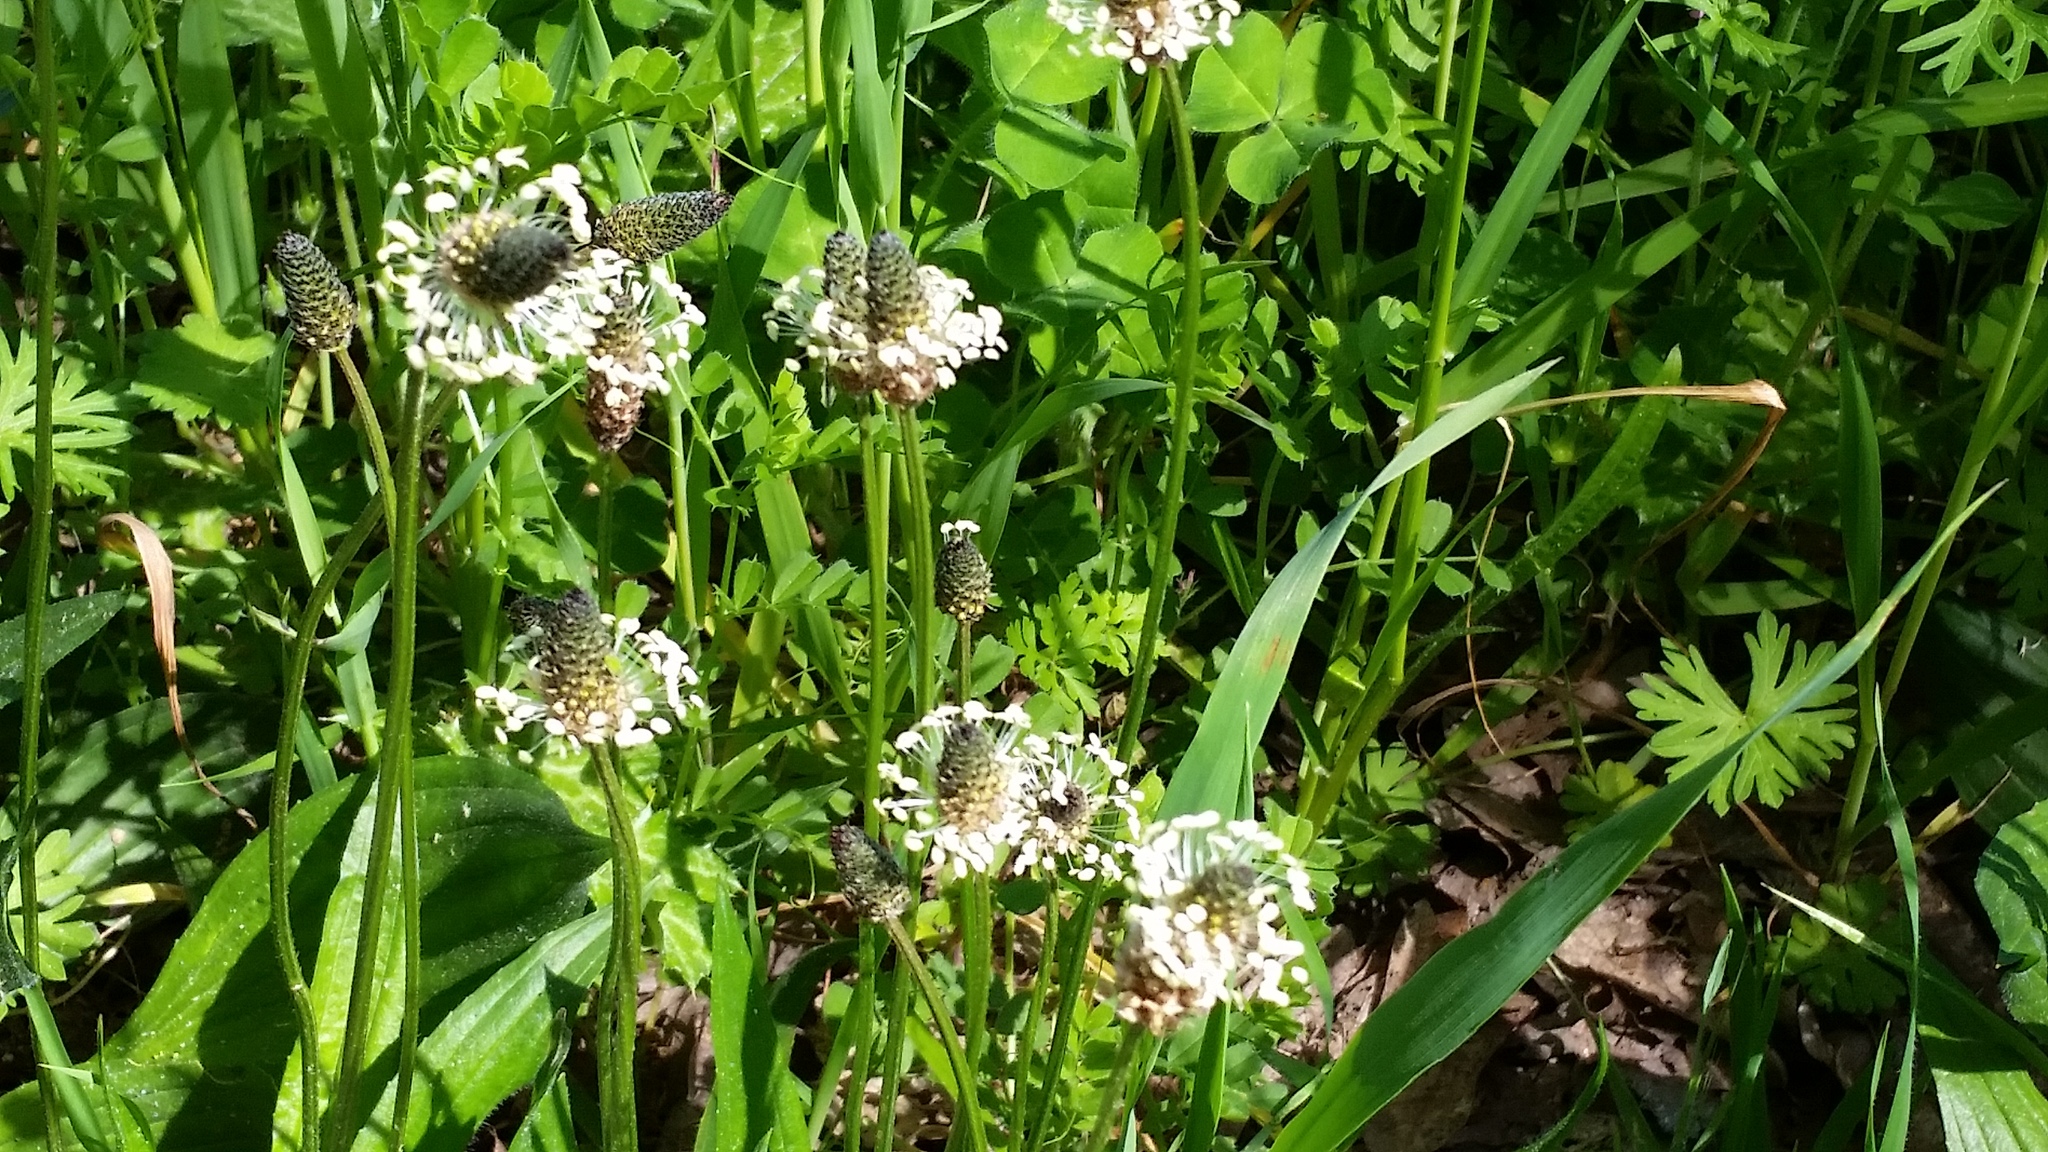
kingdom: Plantae
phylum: Tracheophyta
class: Magnoliopsida
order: Lamiales
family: Plantaginaceae
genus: Plantago
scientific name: Plantago lanceolata
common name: Ribwort plantain
